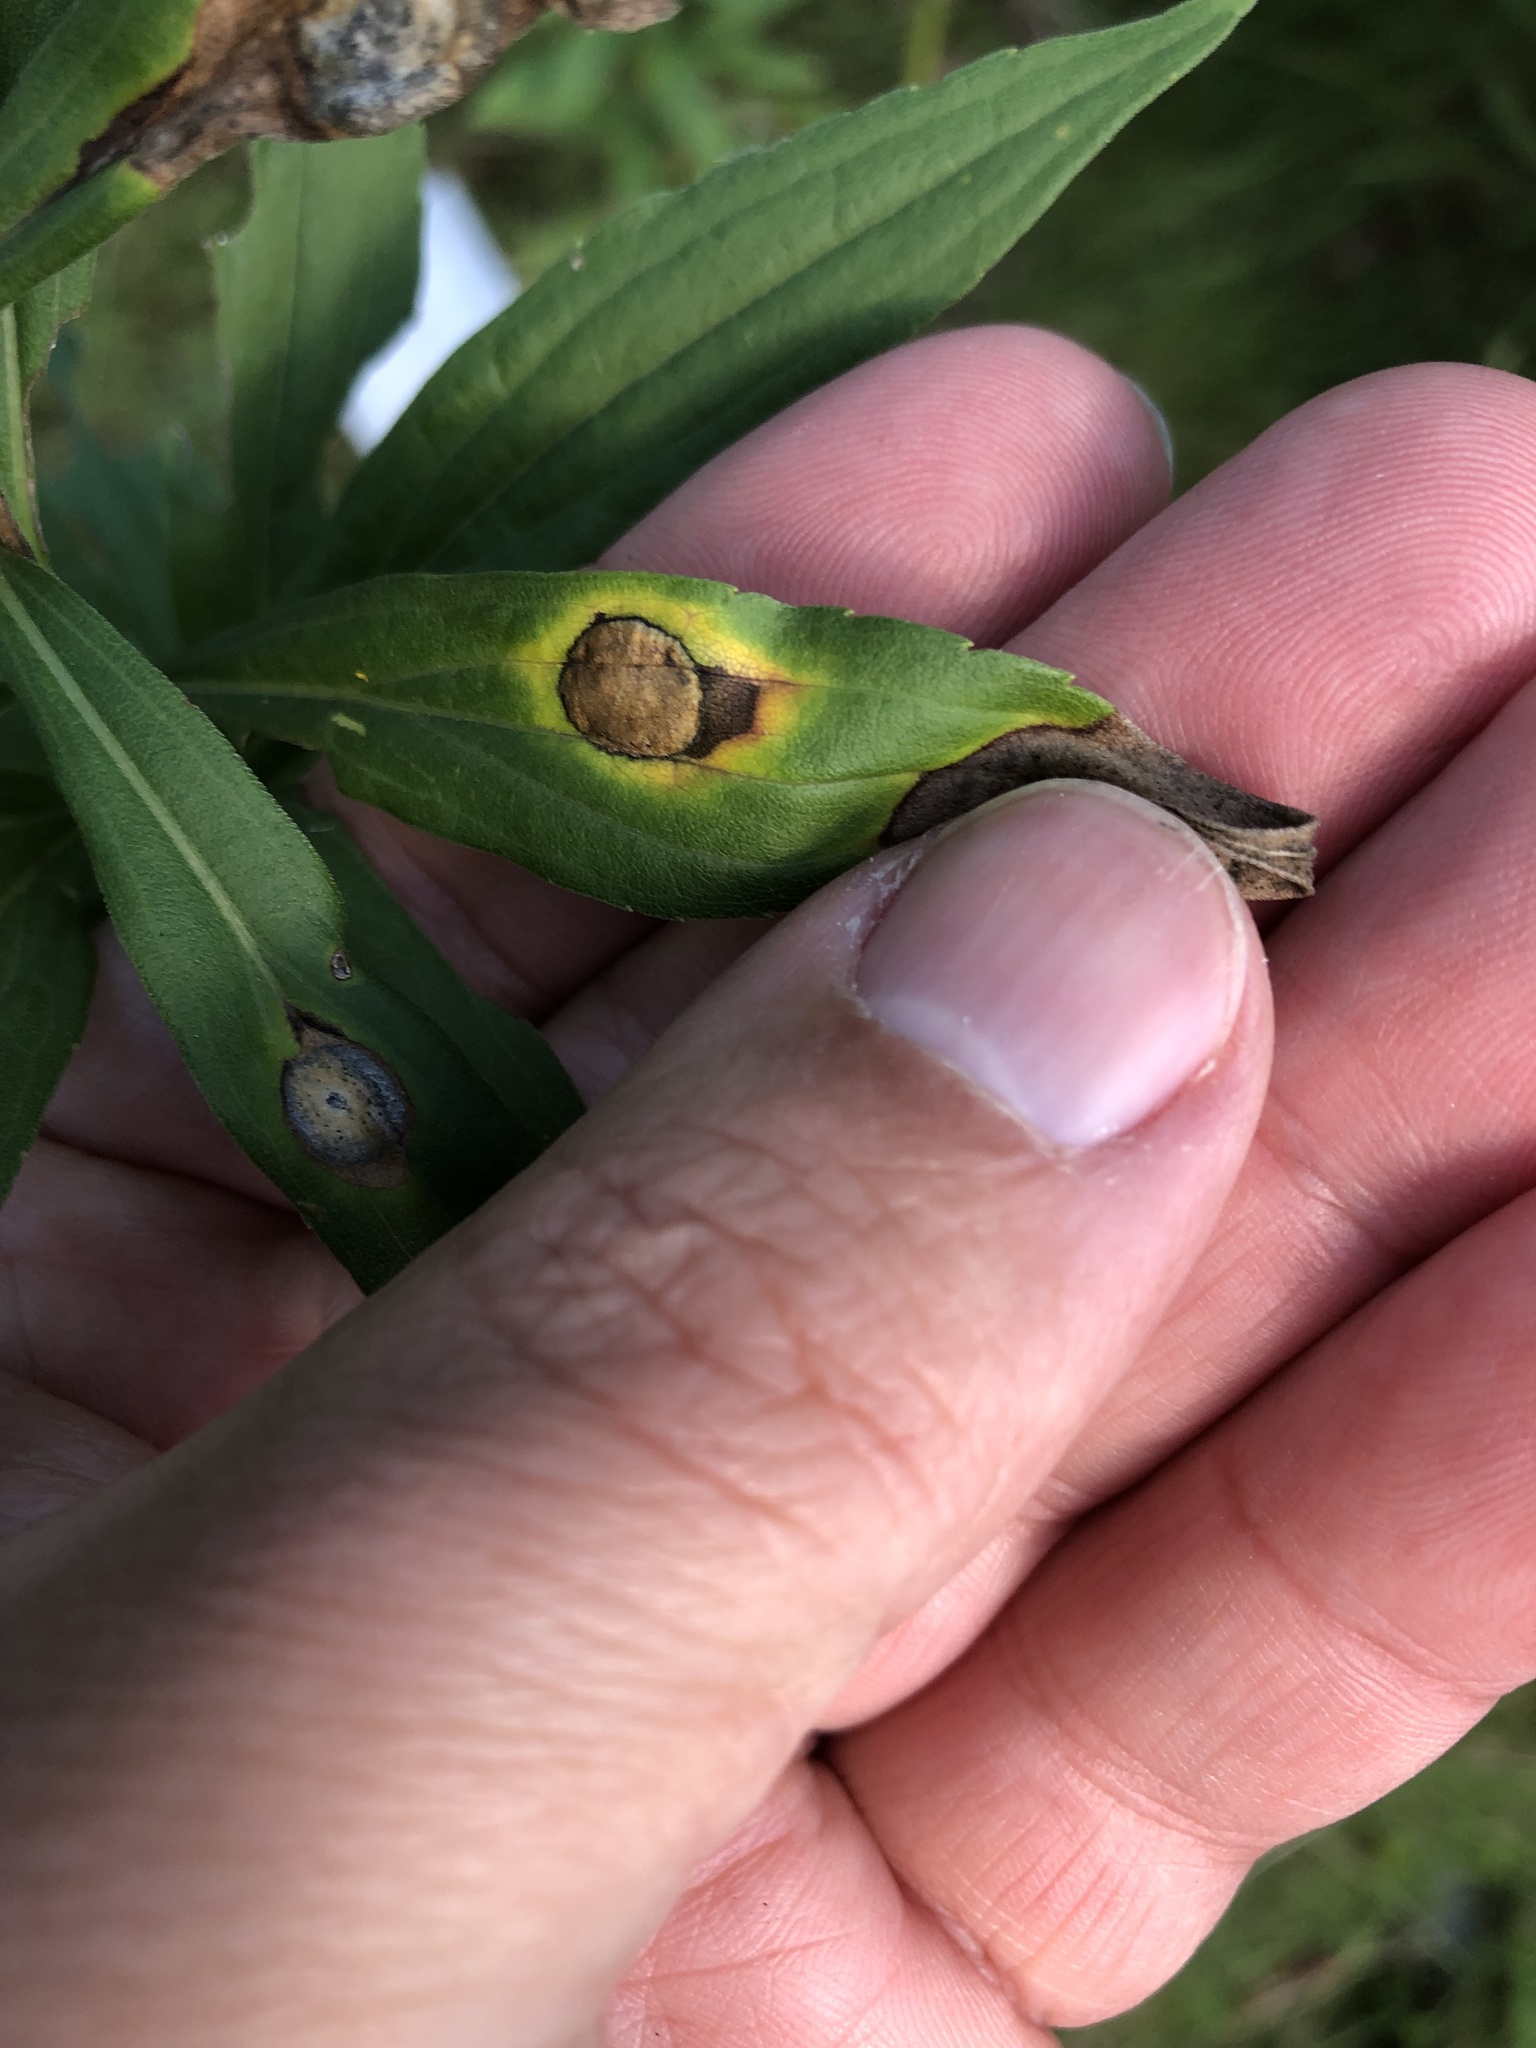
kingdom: Animalia
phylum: Arthropoda
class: Insecta
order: Diptera
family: Cecidomyiidae
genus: Asteromyia
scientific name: Asteromyia carbonifera
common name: Carbonifera goldenrod gall midge
